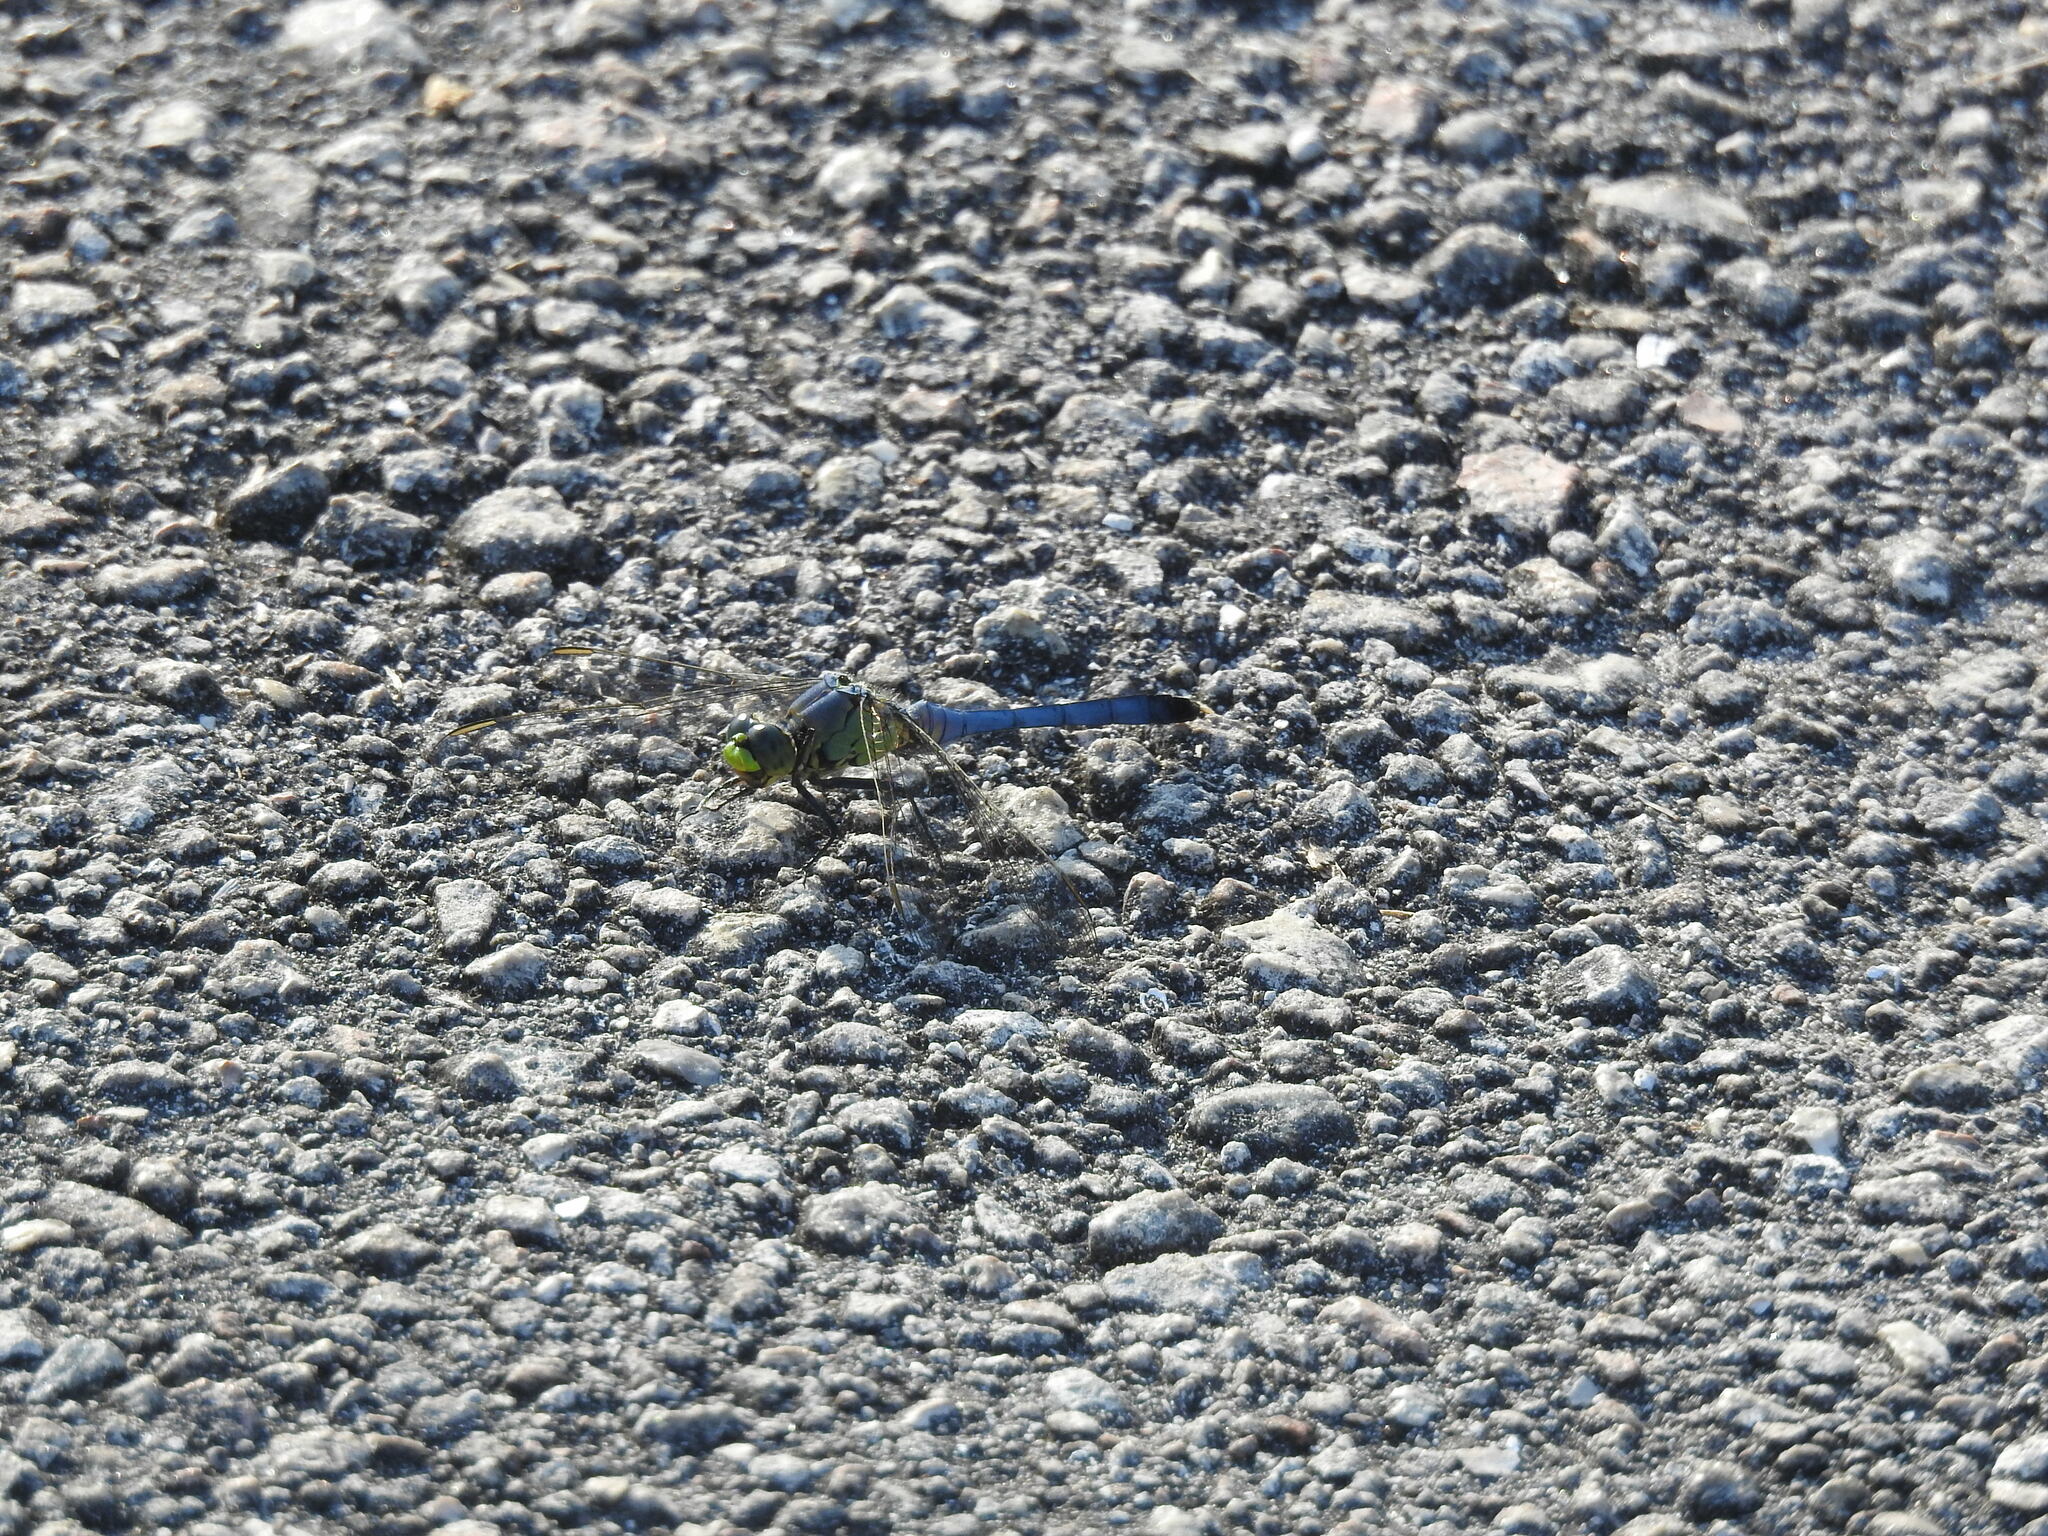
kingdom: Animalia
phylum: Arthropoda
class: Insecta
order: Odonata
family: Libellulidae
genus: Erythemis
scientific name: Erythemis simplicicollis
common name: Eastern pondhawk
